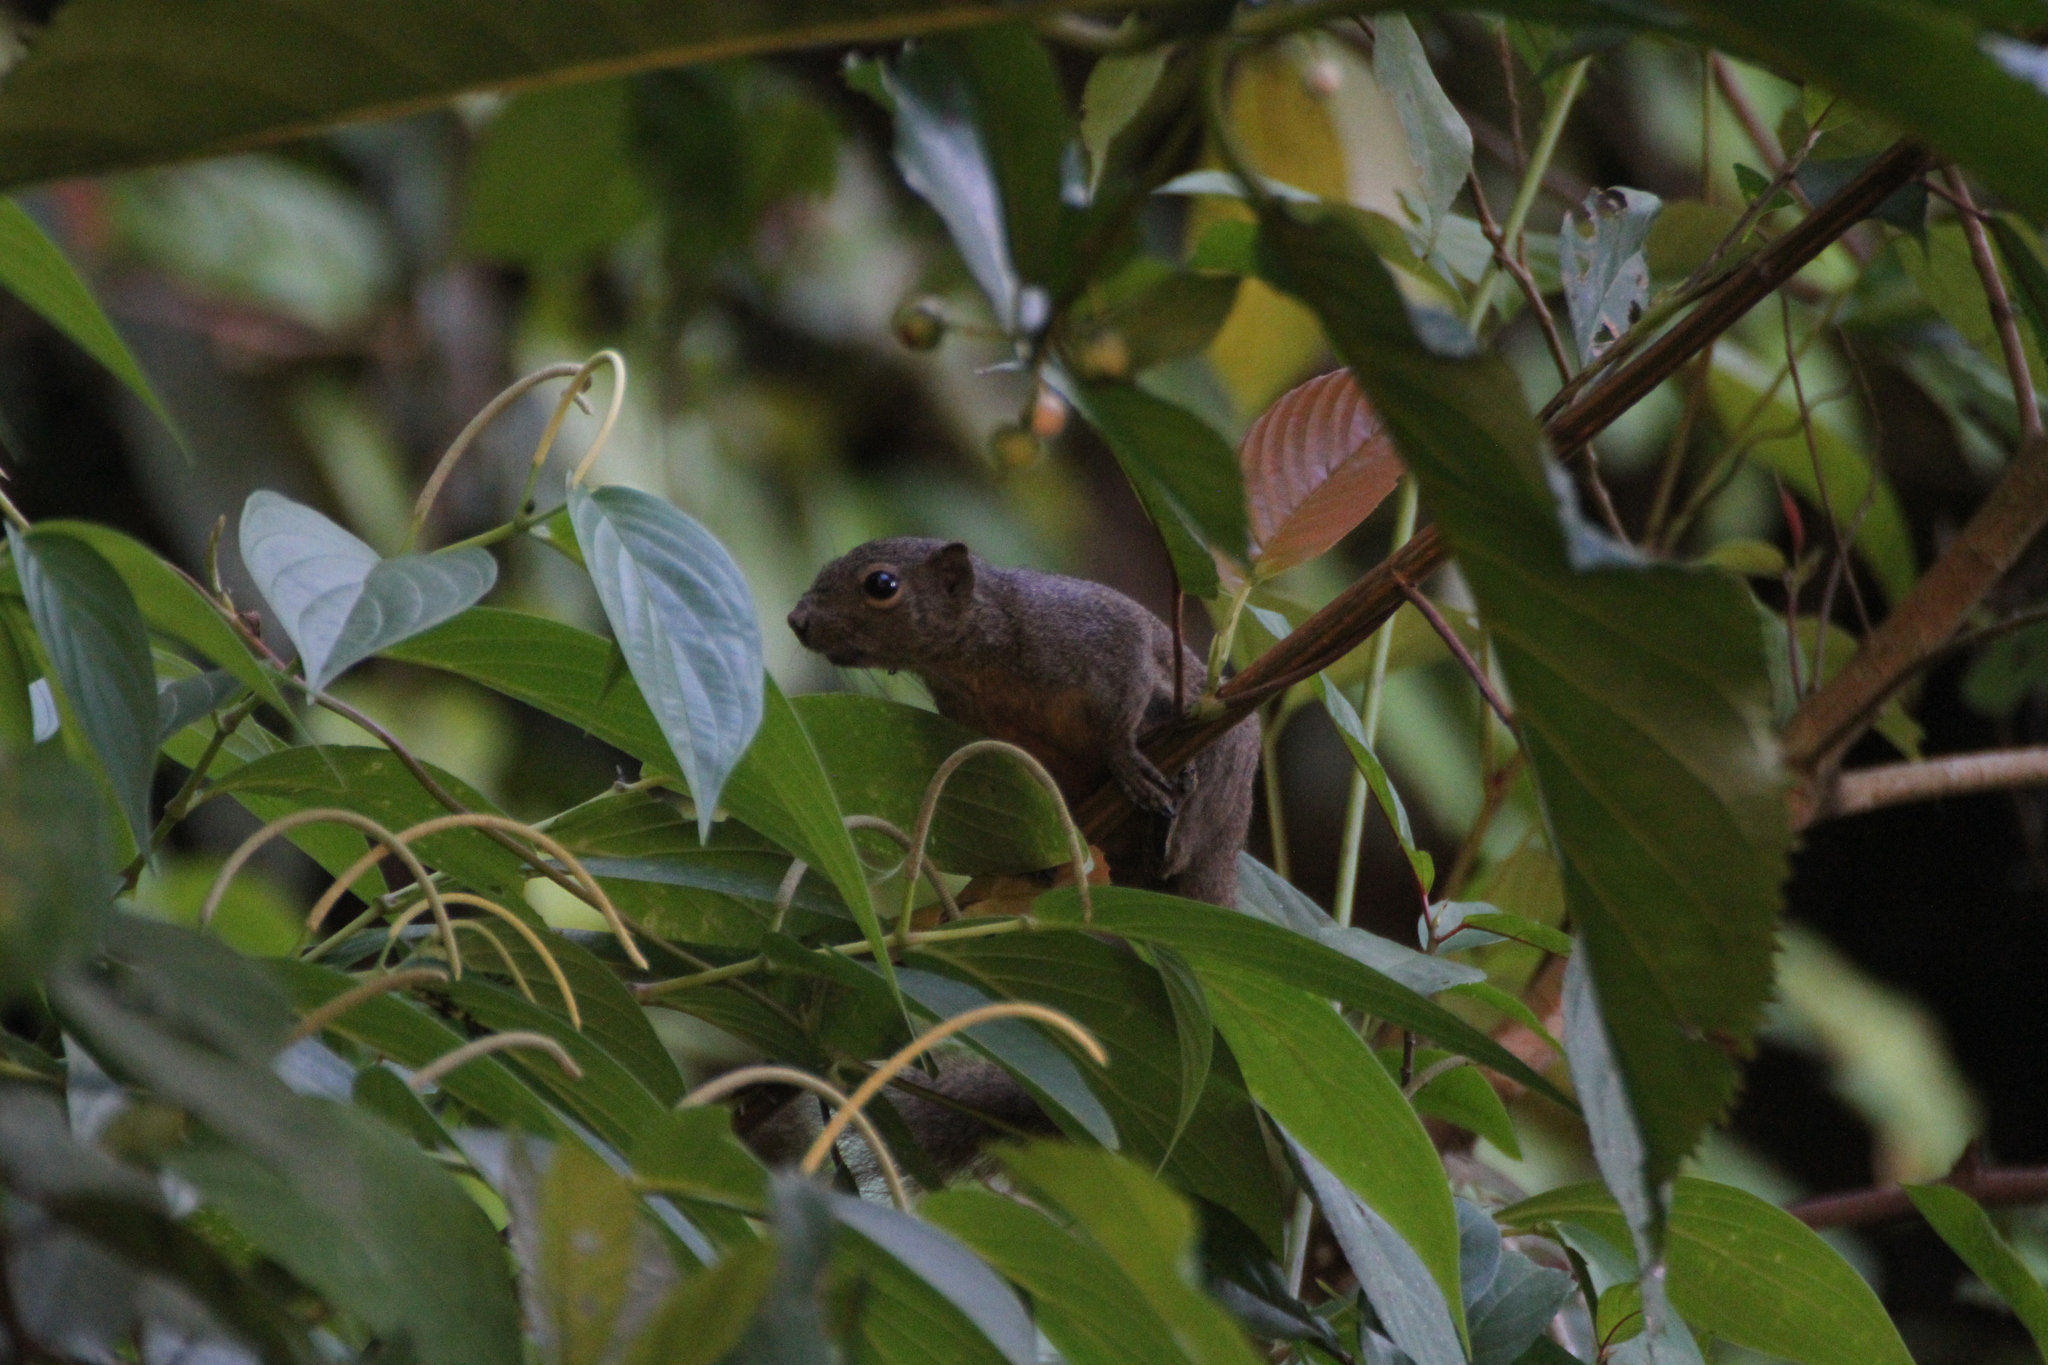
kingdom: Animalia
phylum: Chordata
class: Mammalia
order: Rodentia
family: Sciuridae
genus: Callosciurus
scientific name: Callosciurus notatus
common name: Plantain squirrel
